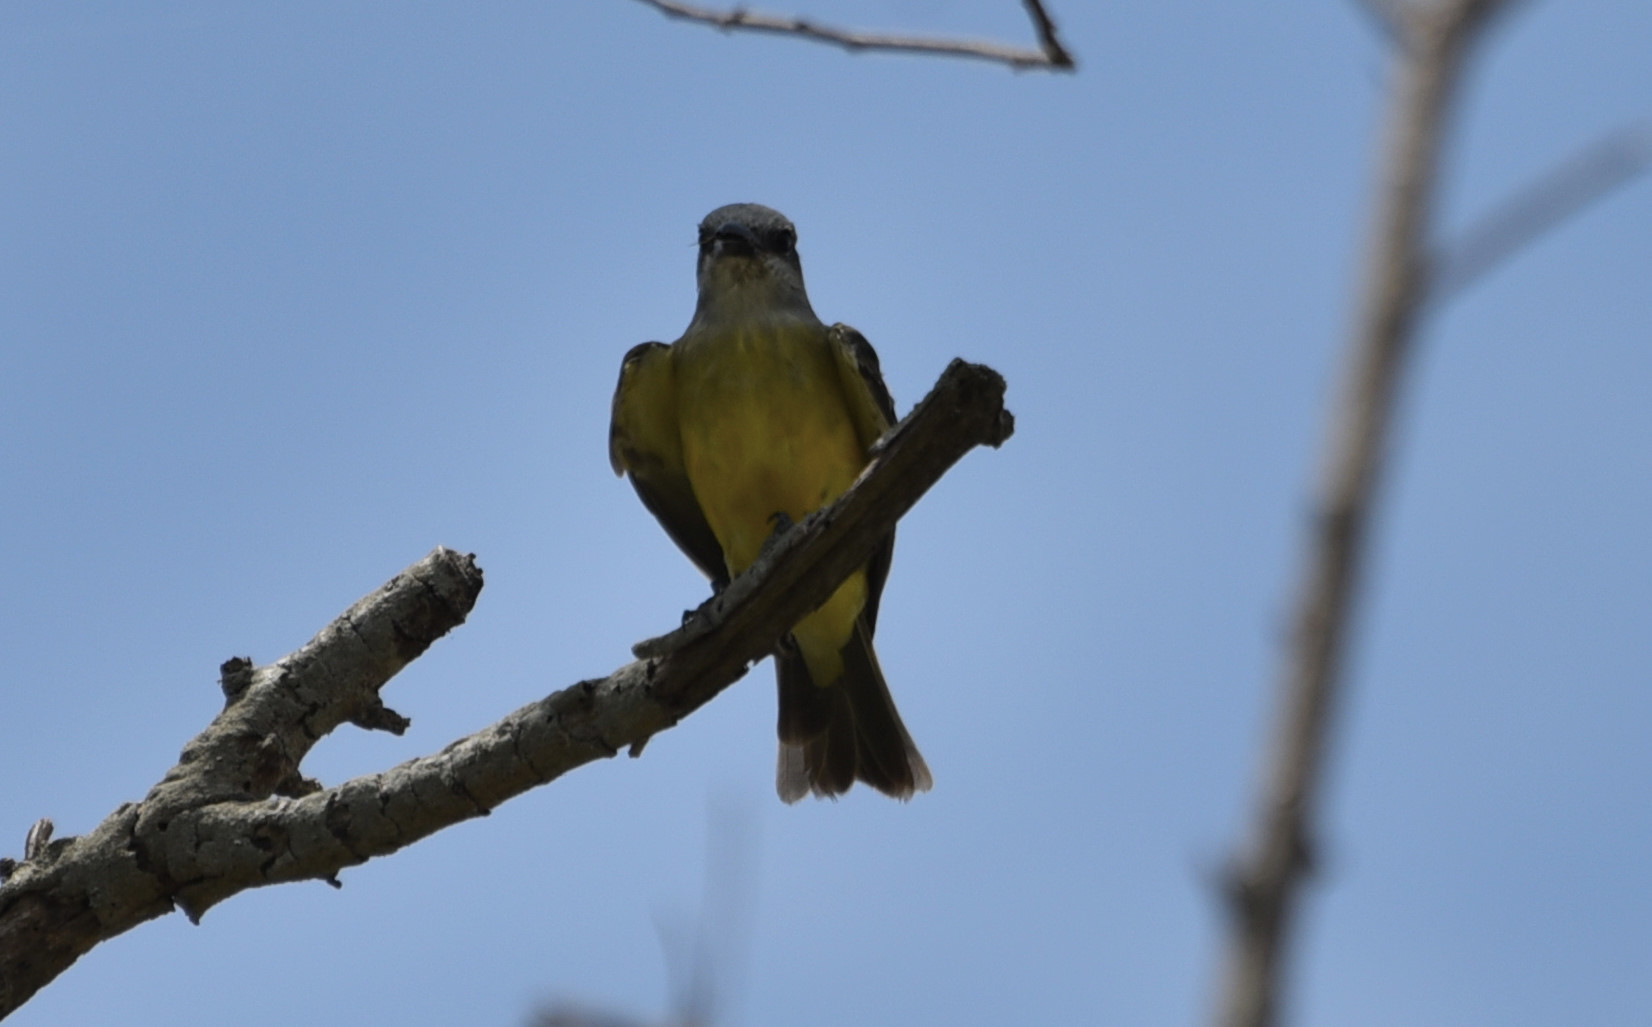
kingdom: Animalia
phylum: Chordata
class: Aves
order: Passeriformes
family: Tyrannidae
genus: Tyrannus
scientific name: Tyrannus
